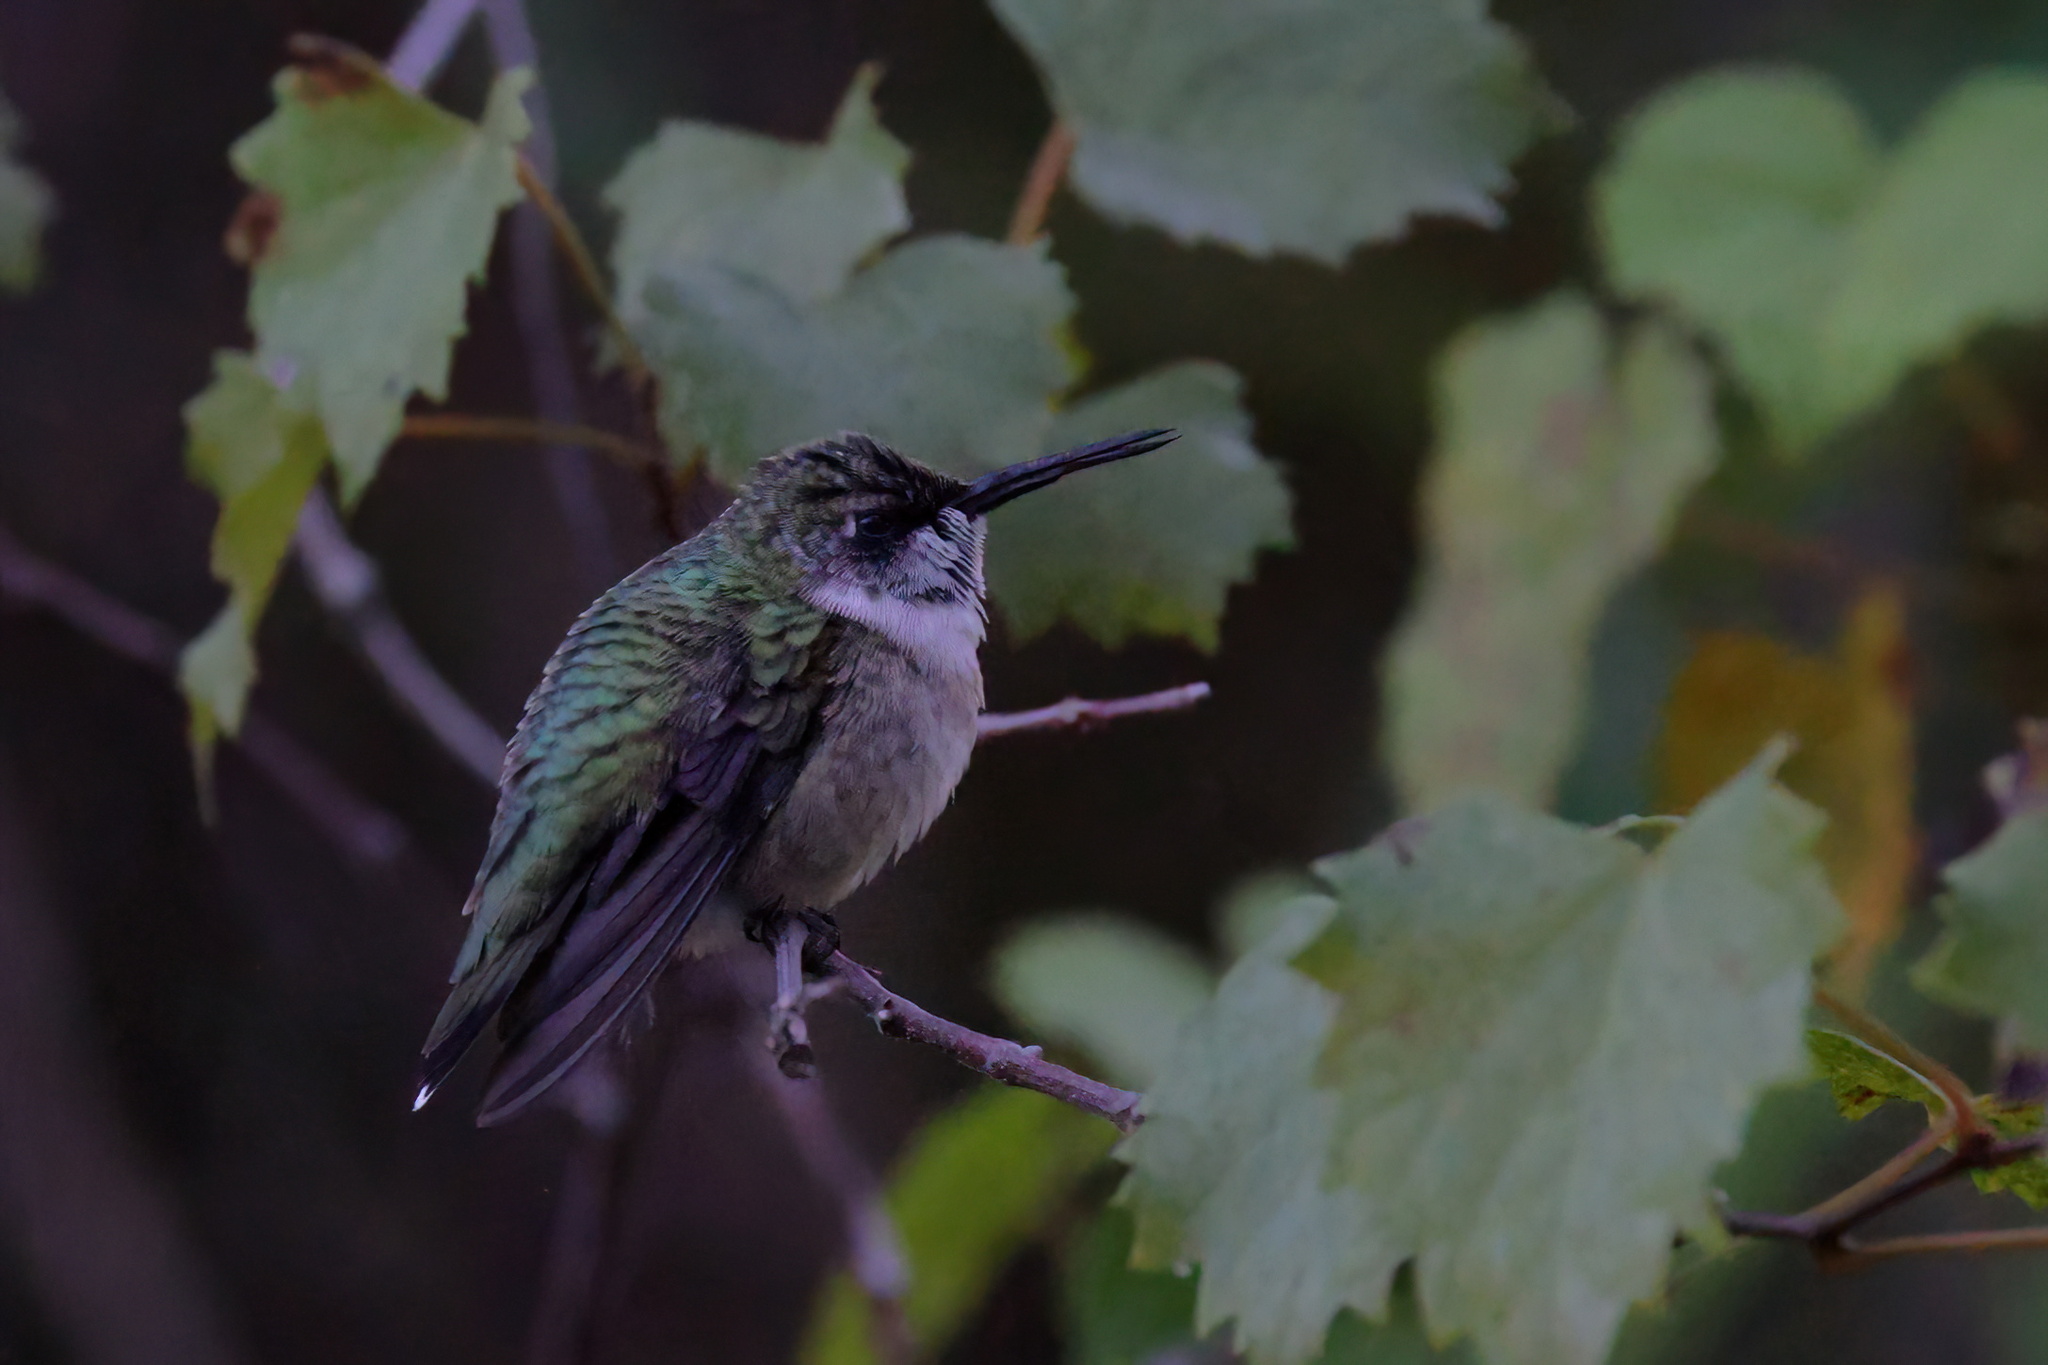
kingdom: Animalia
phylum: Chordata
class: Aves
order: Apodiformes
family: Trochilidae
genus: Archilochus
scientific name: Archilochus colubris
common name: Ruby-throated hummingbird
